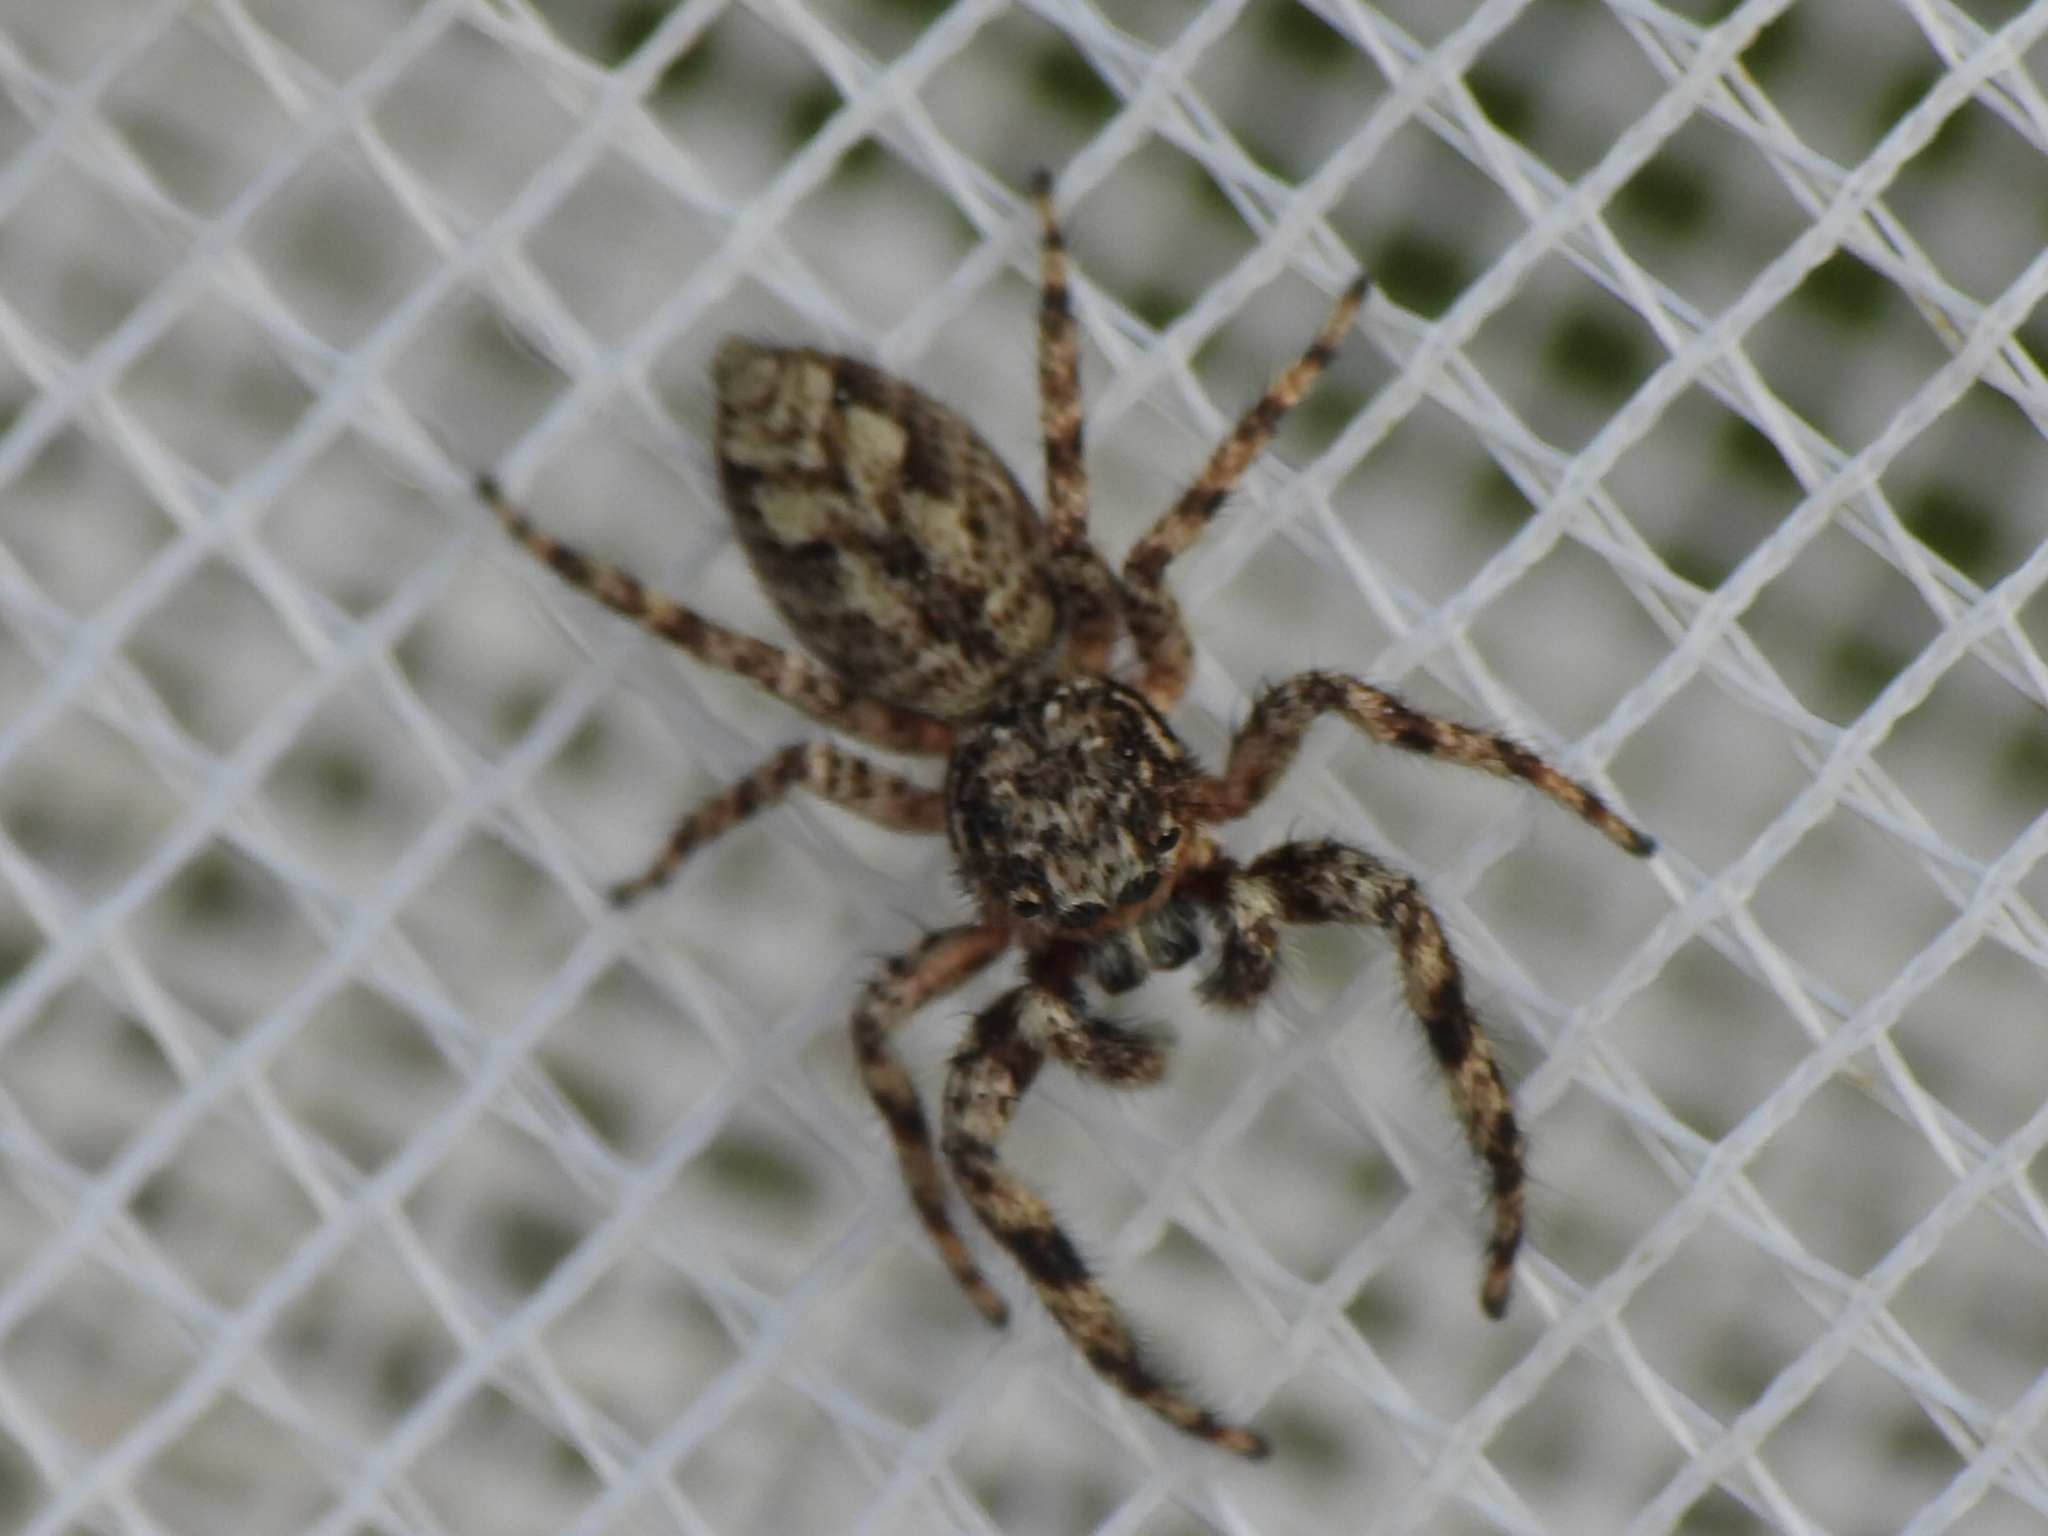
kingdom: Animalia
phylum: Arthropoda
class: Arachnida
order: Araneae
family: Salticidae
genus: Platycryptus
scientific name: Platycryptus undatus
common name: Tan jumping spider
